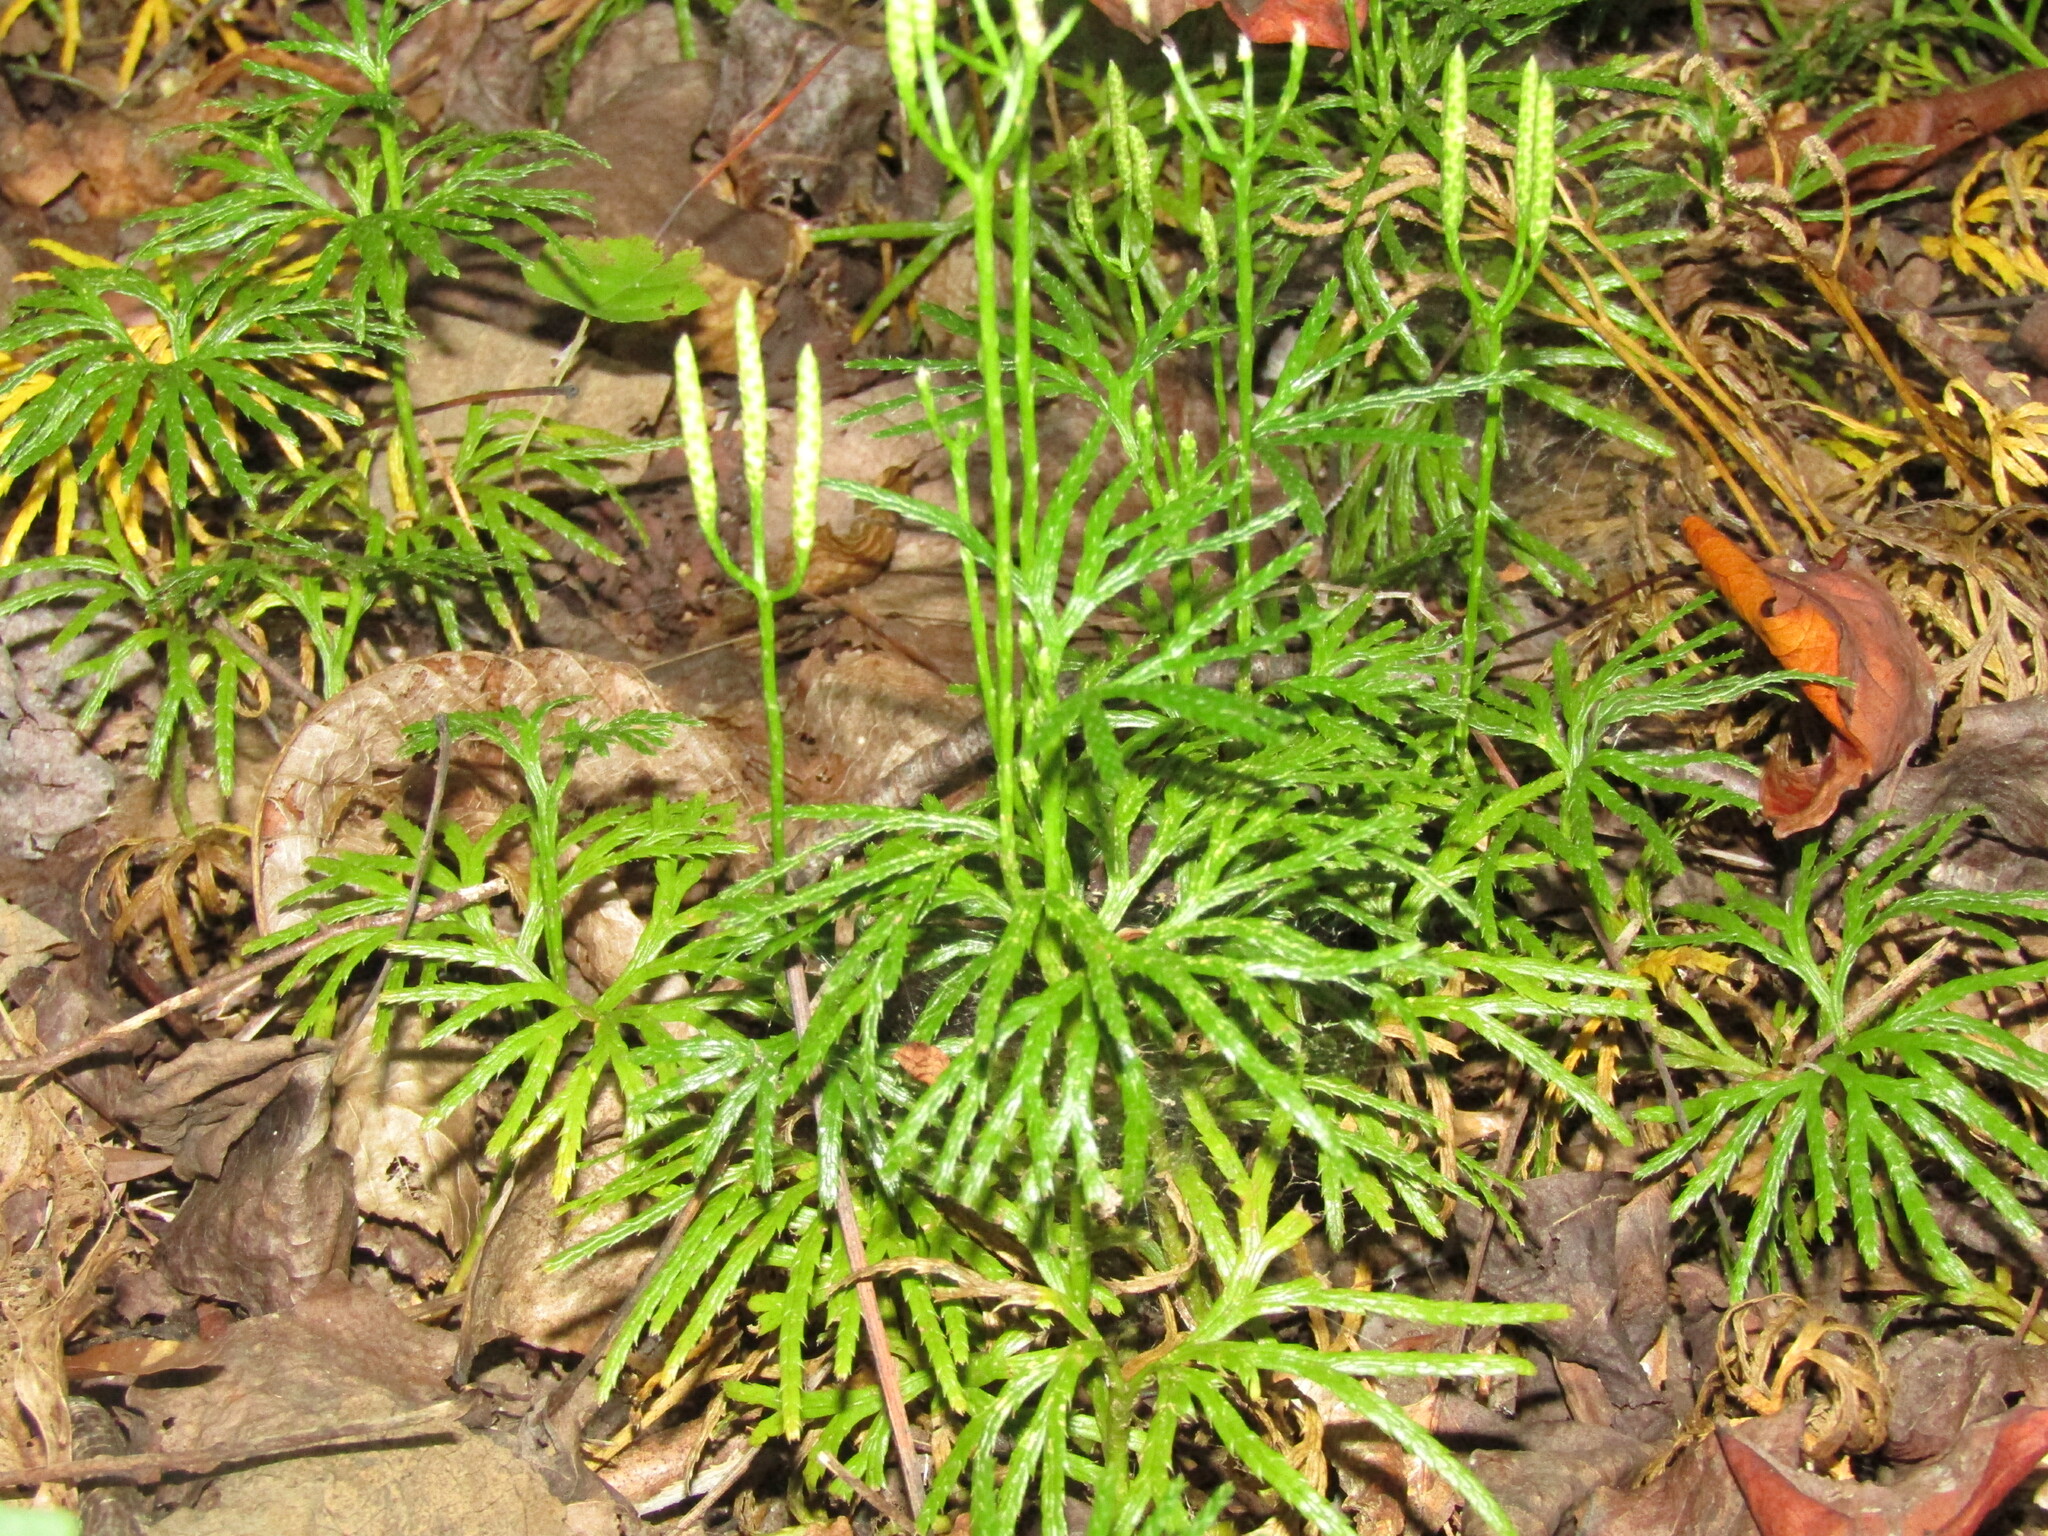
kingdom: Plantae
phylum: Tracheophyta
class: Lycopodiopsida
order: Lycopodiales
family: Lycopodiaceae
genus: Diphasiastrum
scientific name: Diphasiastrum digitatum
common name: Southern running-pine
